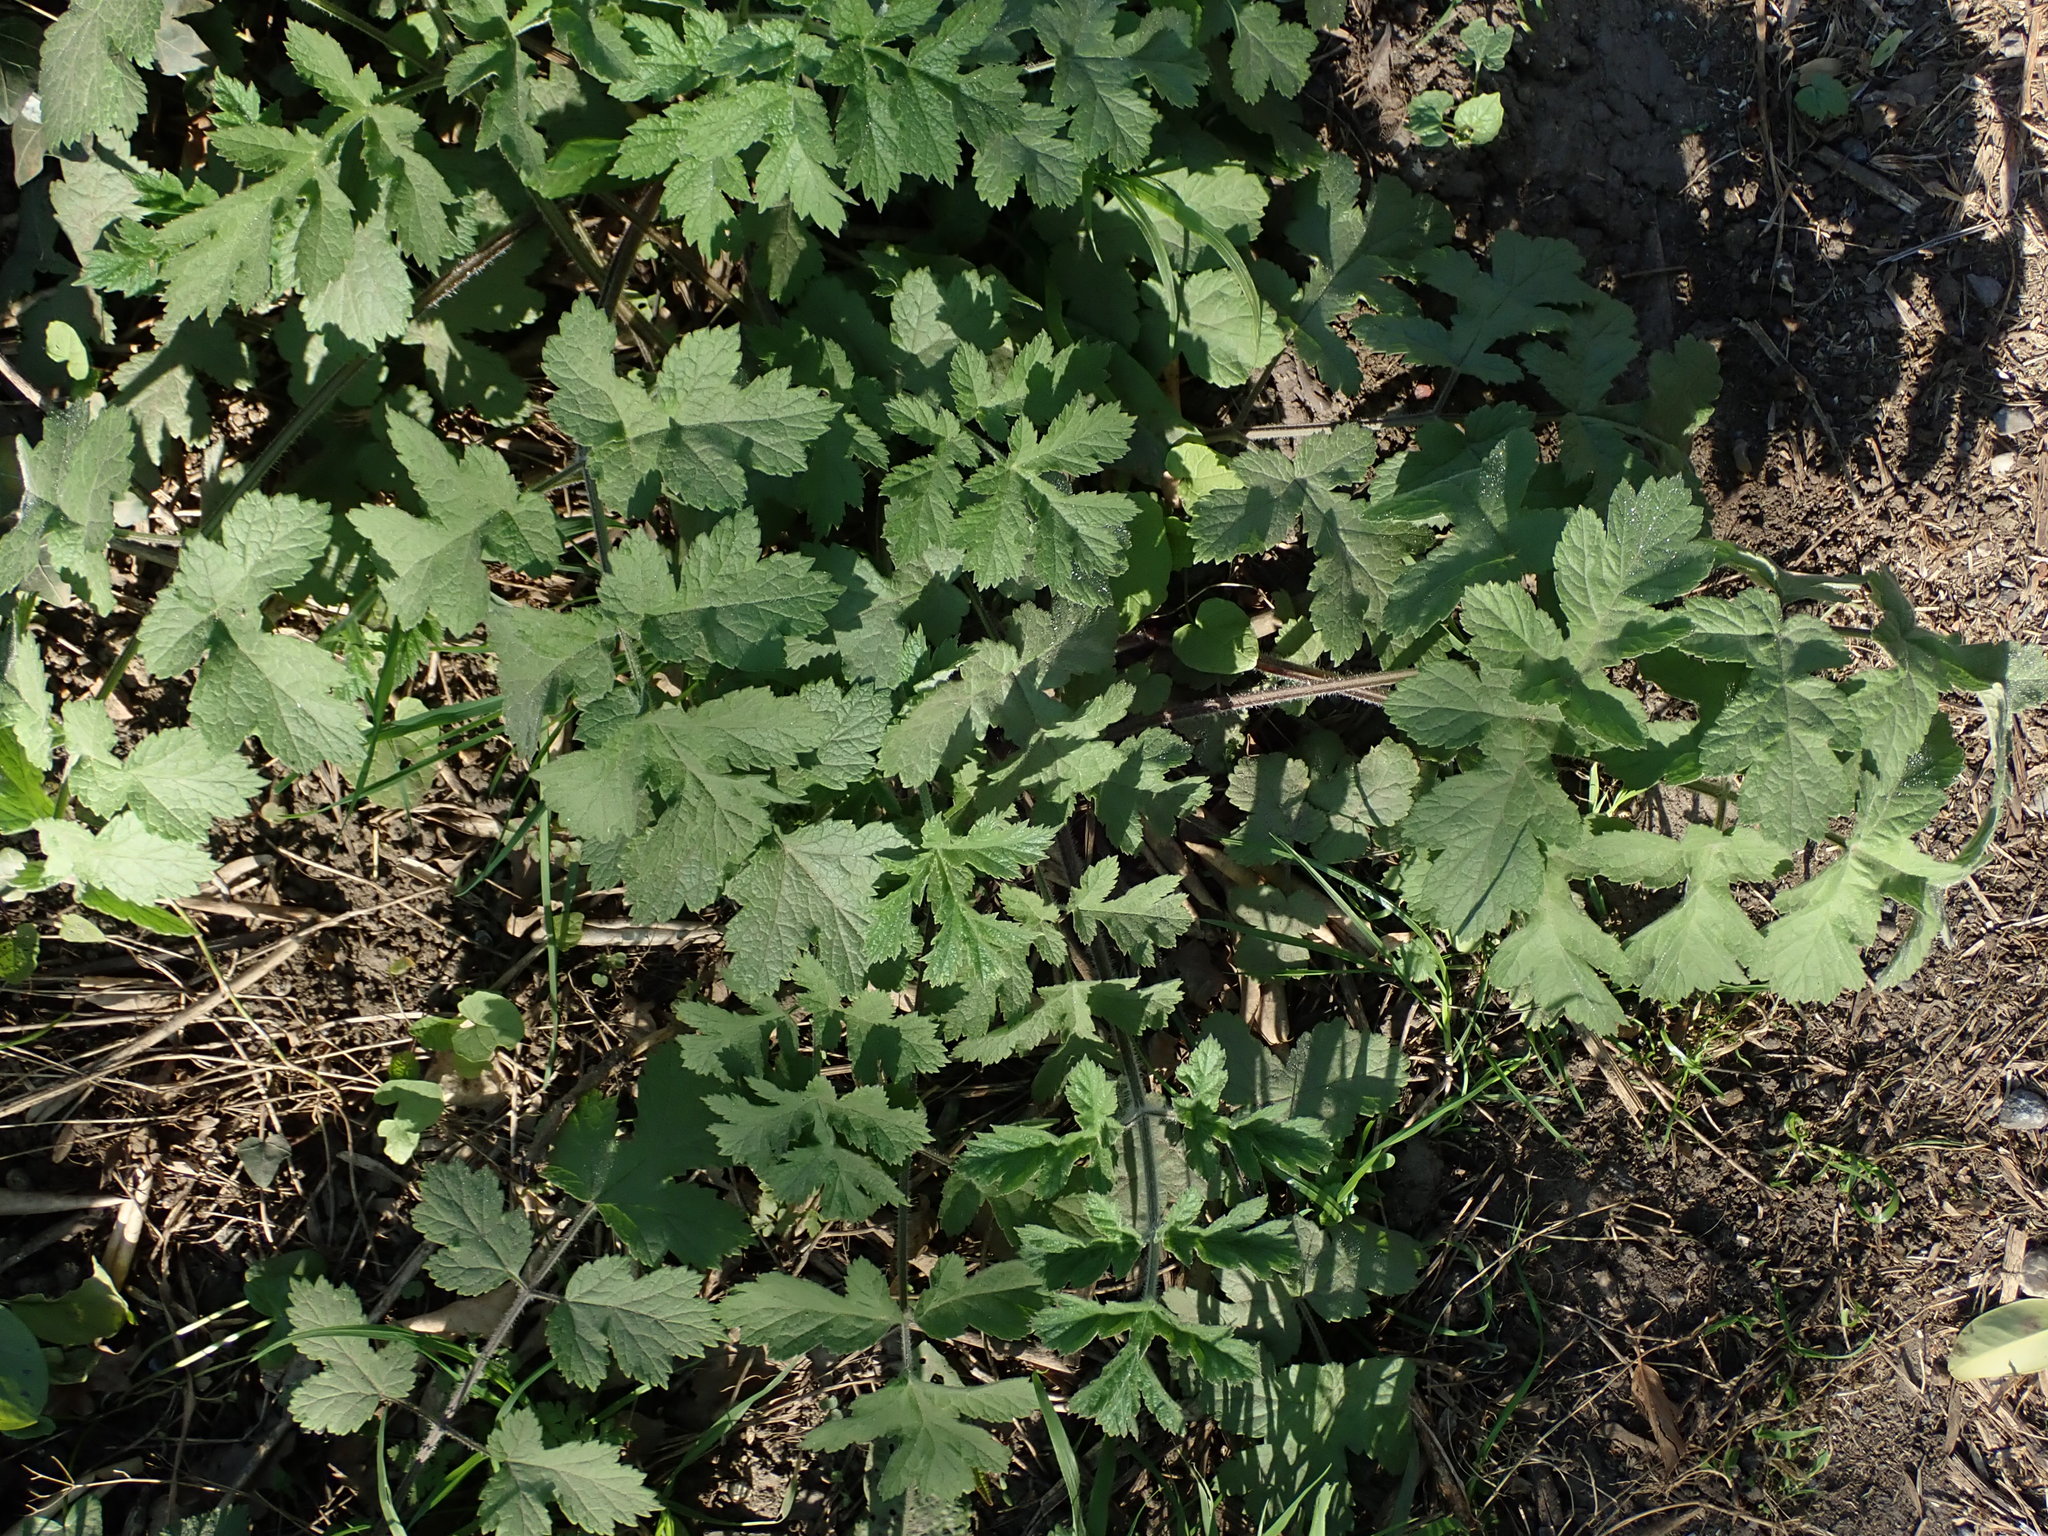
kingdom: Plantae
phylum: Tracheophyta
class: Magnoliopsida
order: Apiales
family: Apiaceae
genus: Heracleum
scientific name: Heracleum sphondylium
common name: Hogweed
